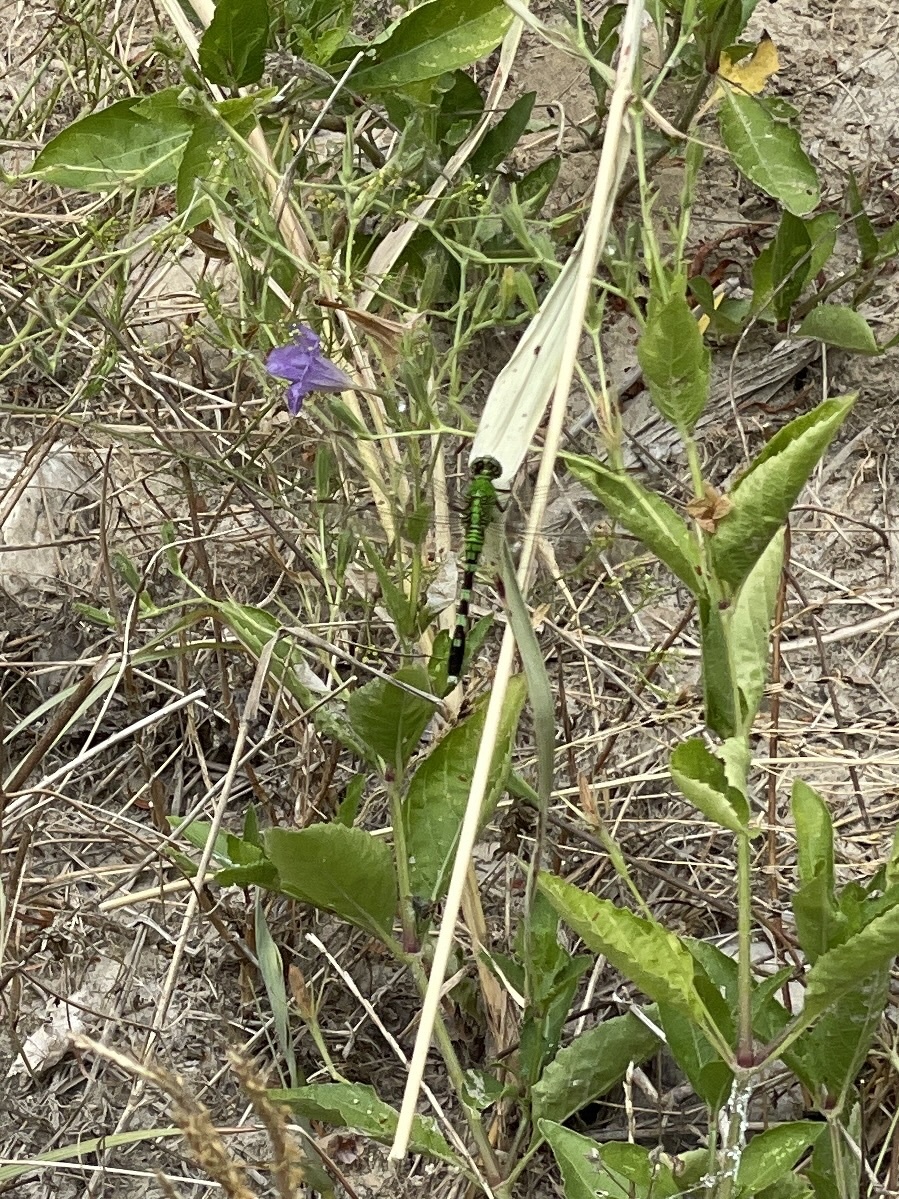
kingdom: Animalia
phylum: Arthropoda
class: Insecta
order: Odonata
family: Libellulidae
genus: Erythemis
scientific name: Erythemis simplicicollis
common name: Eastern pondhawk
